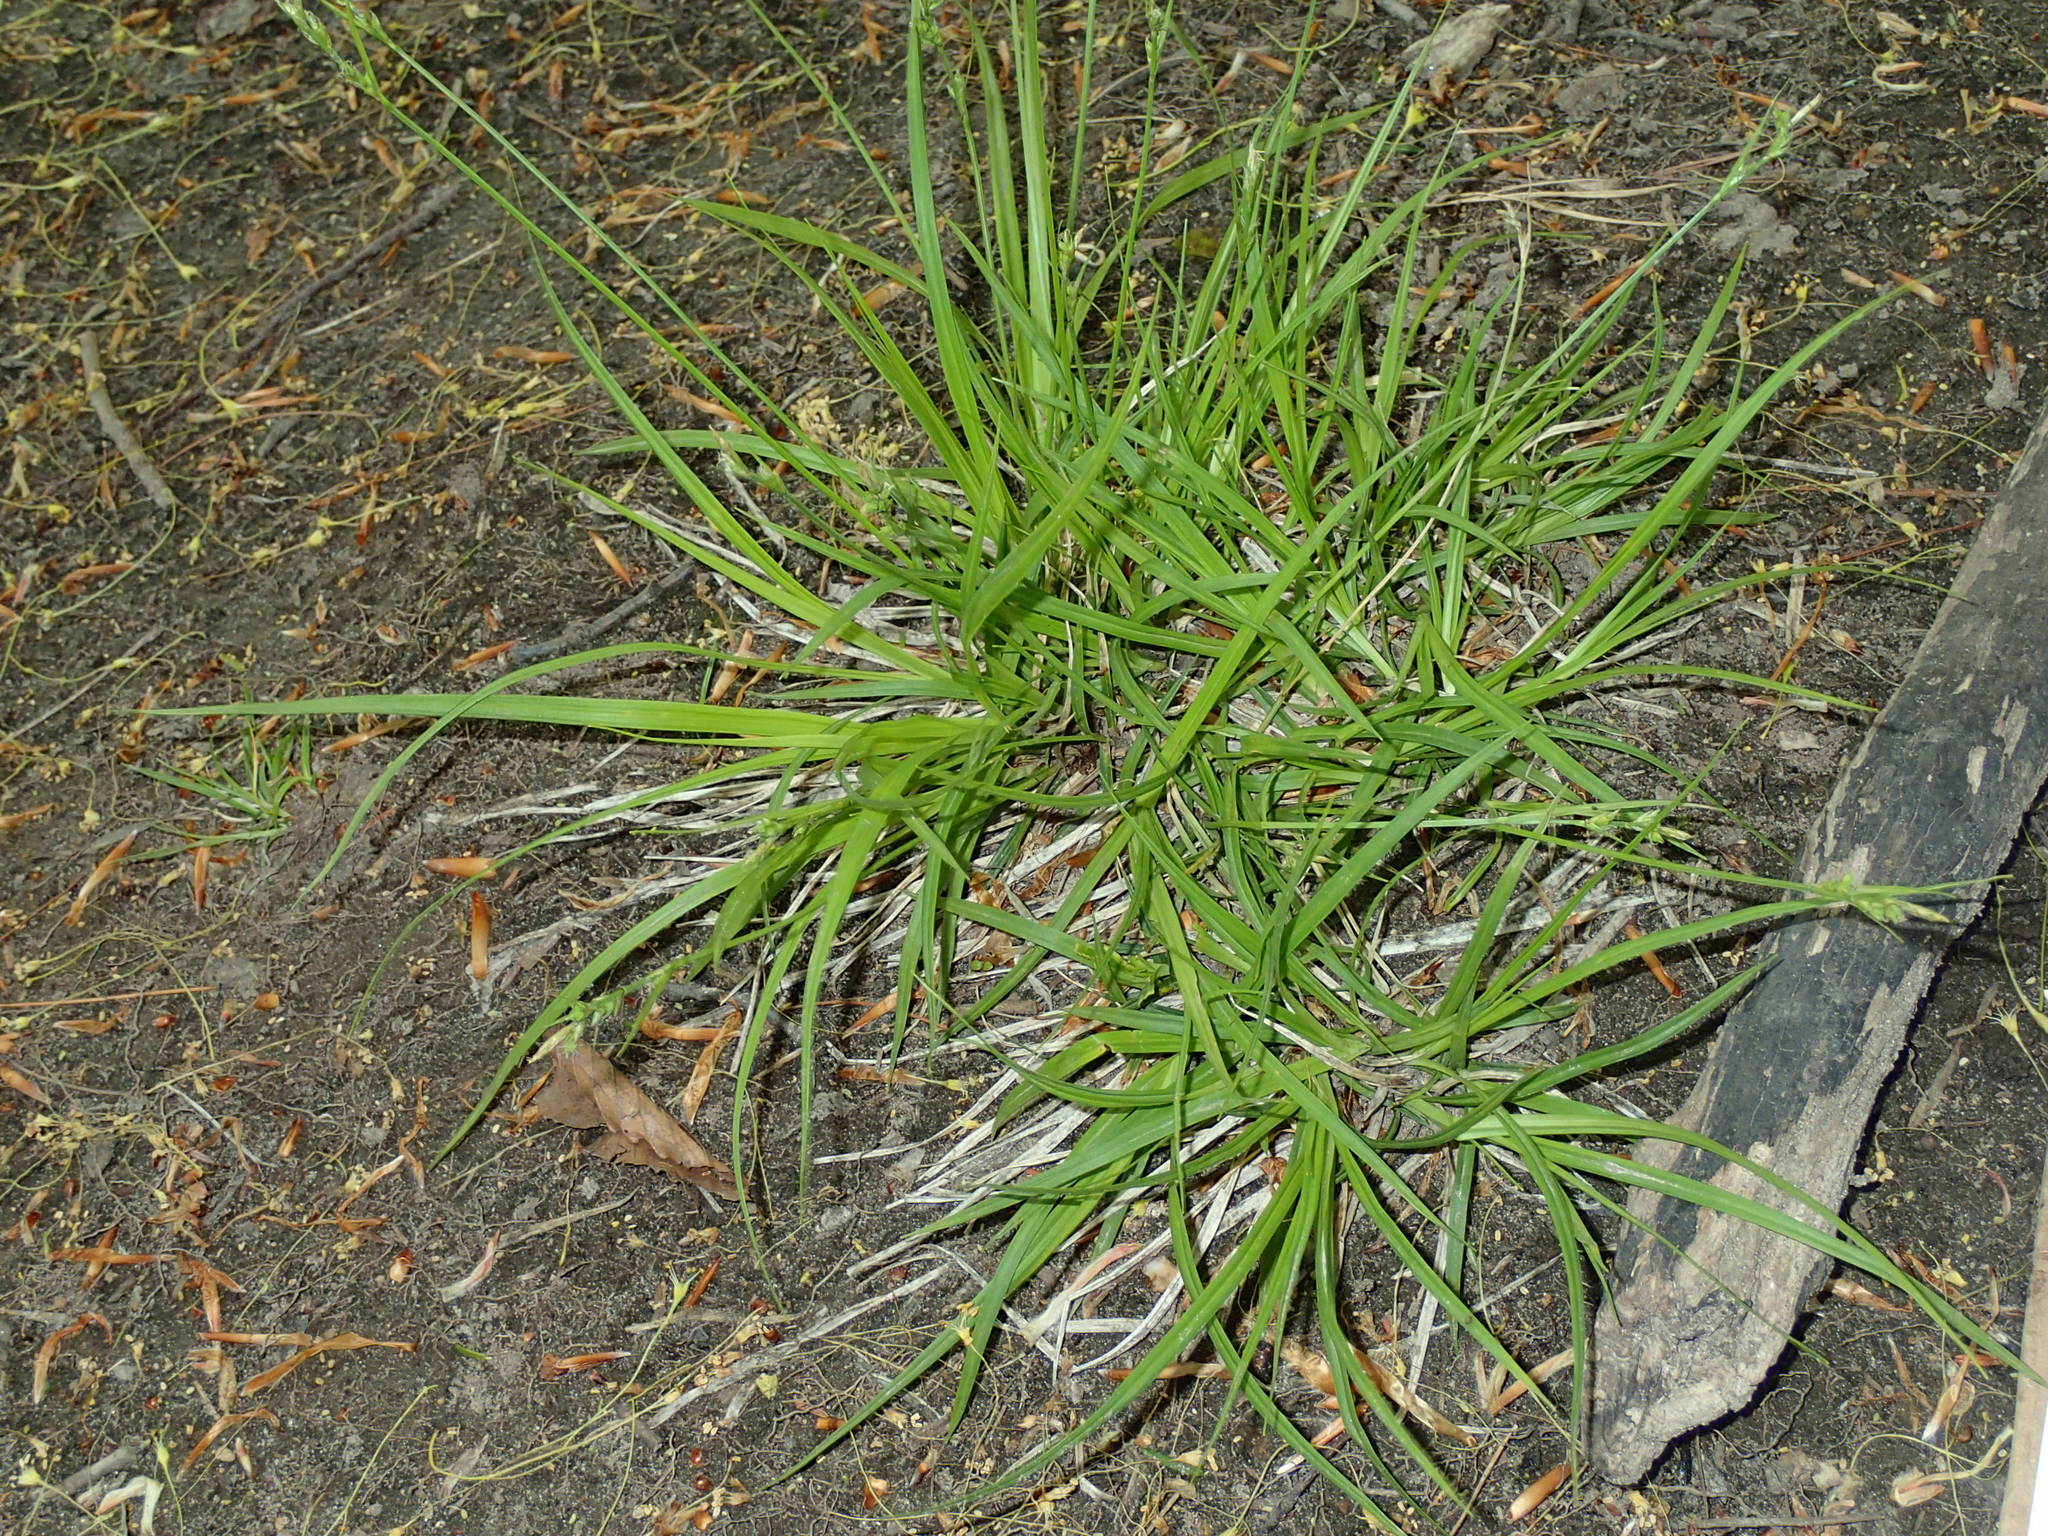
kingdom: Plantae
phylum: Tracheophyta
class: Liliopsida
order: Poales
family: Cyperaceae
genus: Carex
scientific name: Carex communis
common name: Colonial oak sedge
